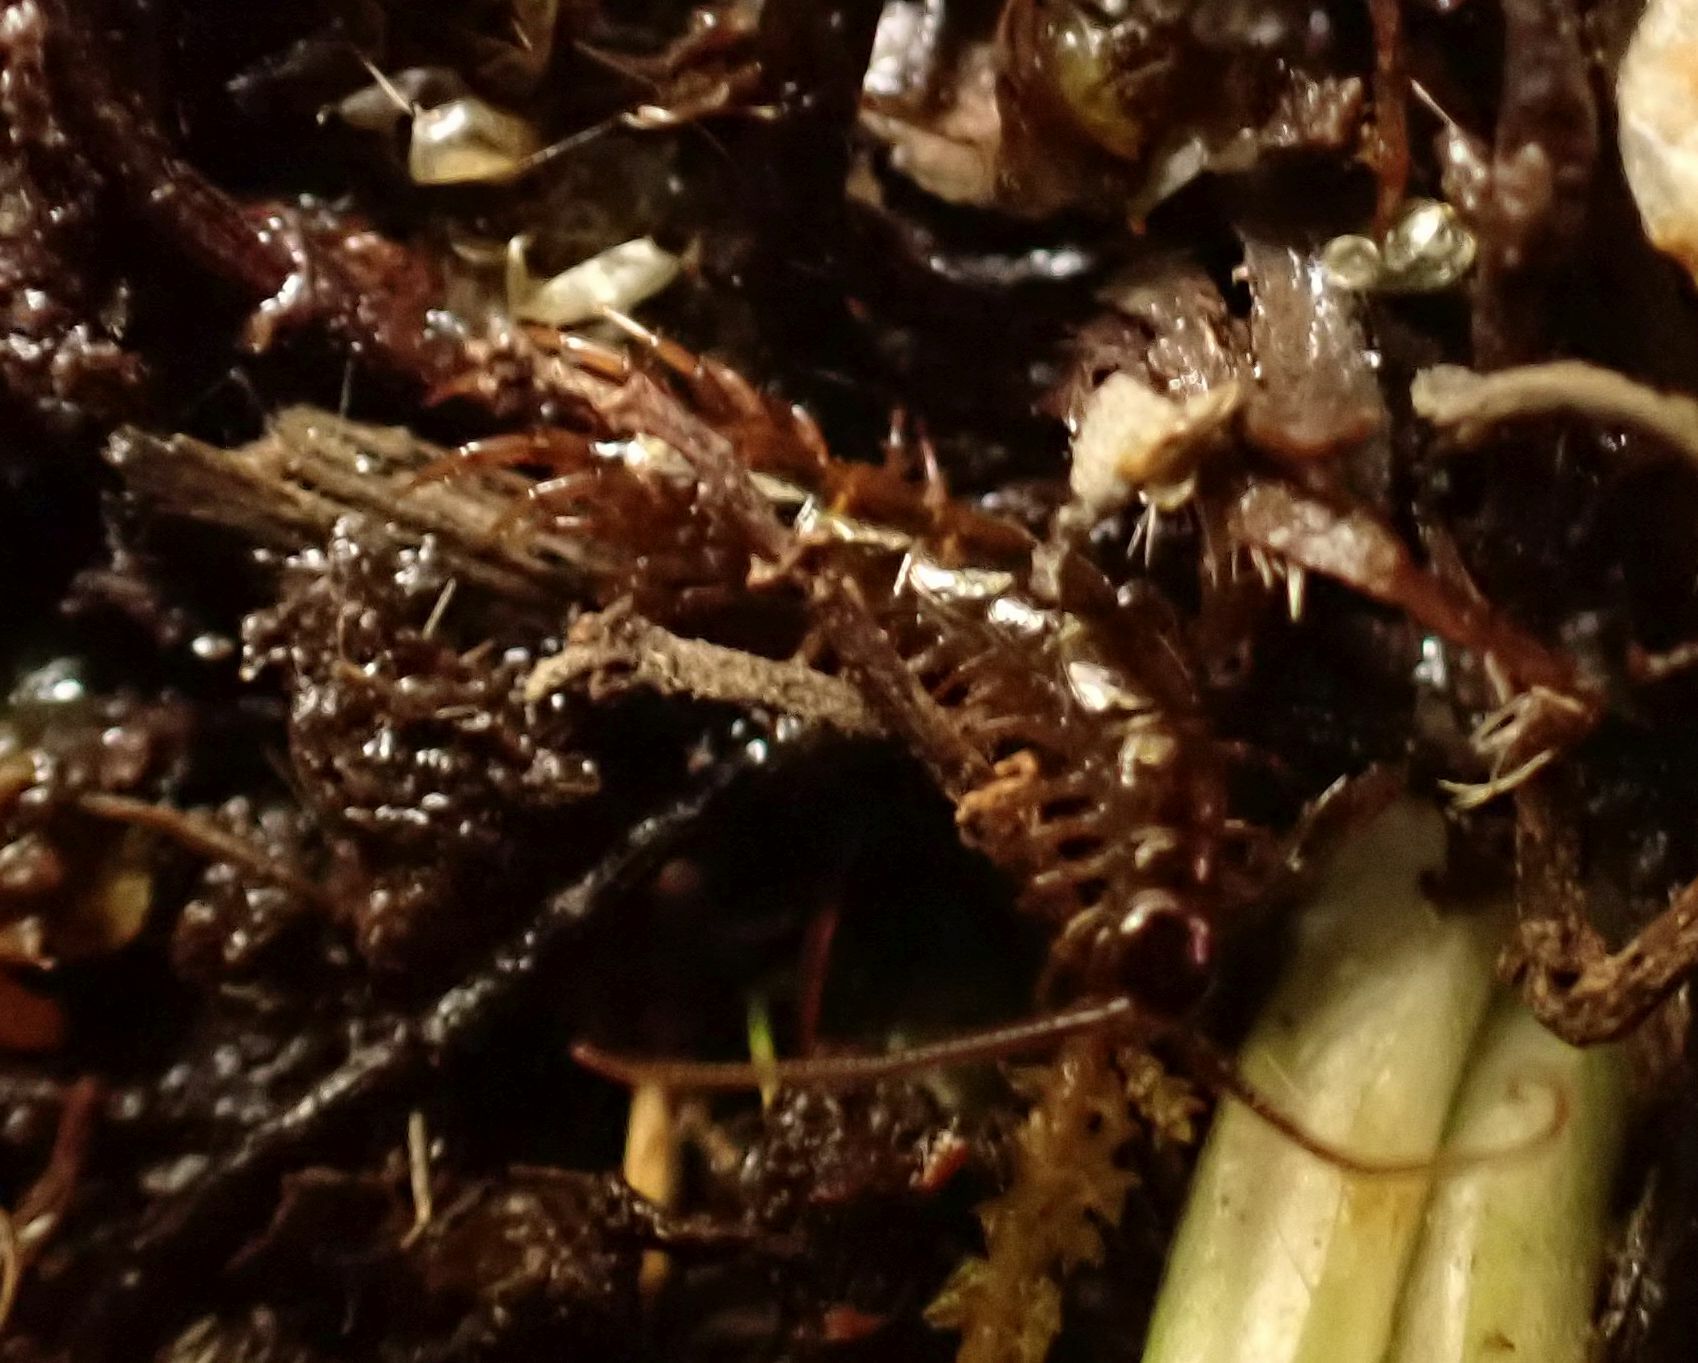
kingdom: Animalia
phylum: Arthropoda
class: Chilopoda
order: Lithobiomorpha
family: Lithobiidae
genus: Lithobius
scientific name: Lithobius calcaratus
